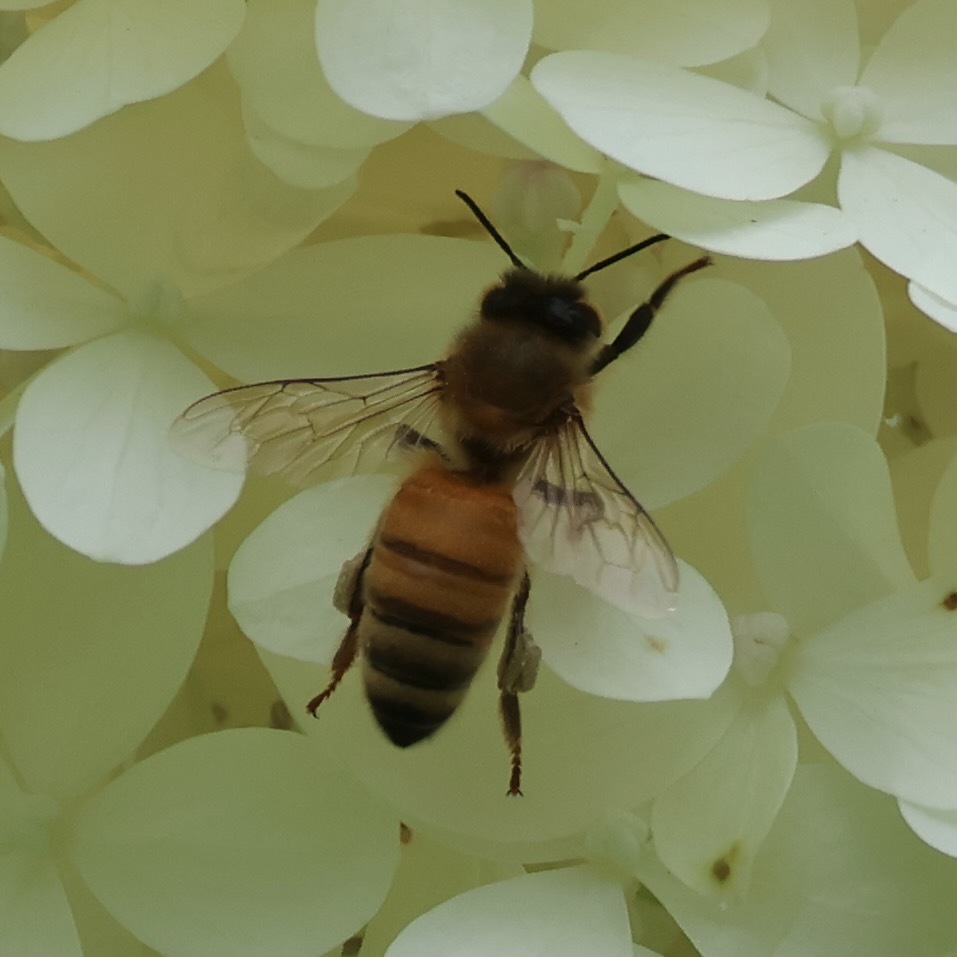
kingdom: Animalia
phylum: Arthropoda
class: Insecta
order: Hymenoptera
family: Apidae
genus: Apis
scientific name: Apis mellifera
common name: Honey bee
